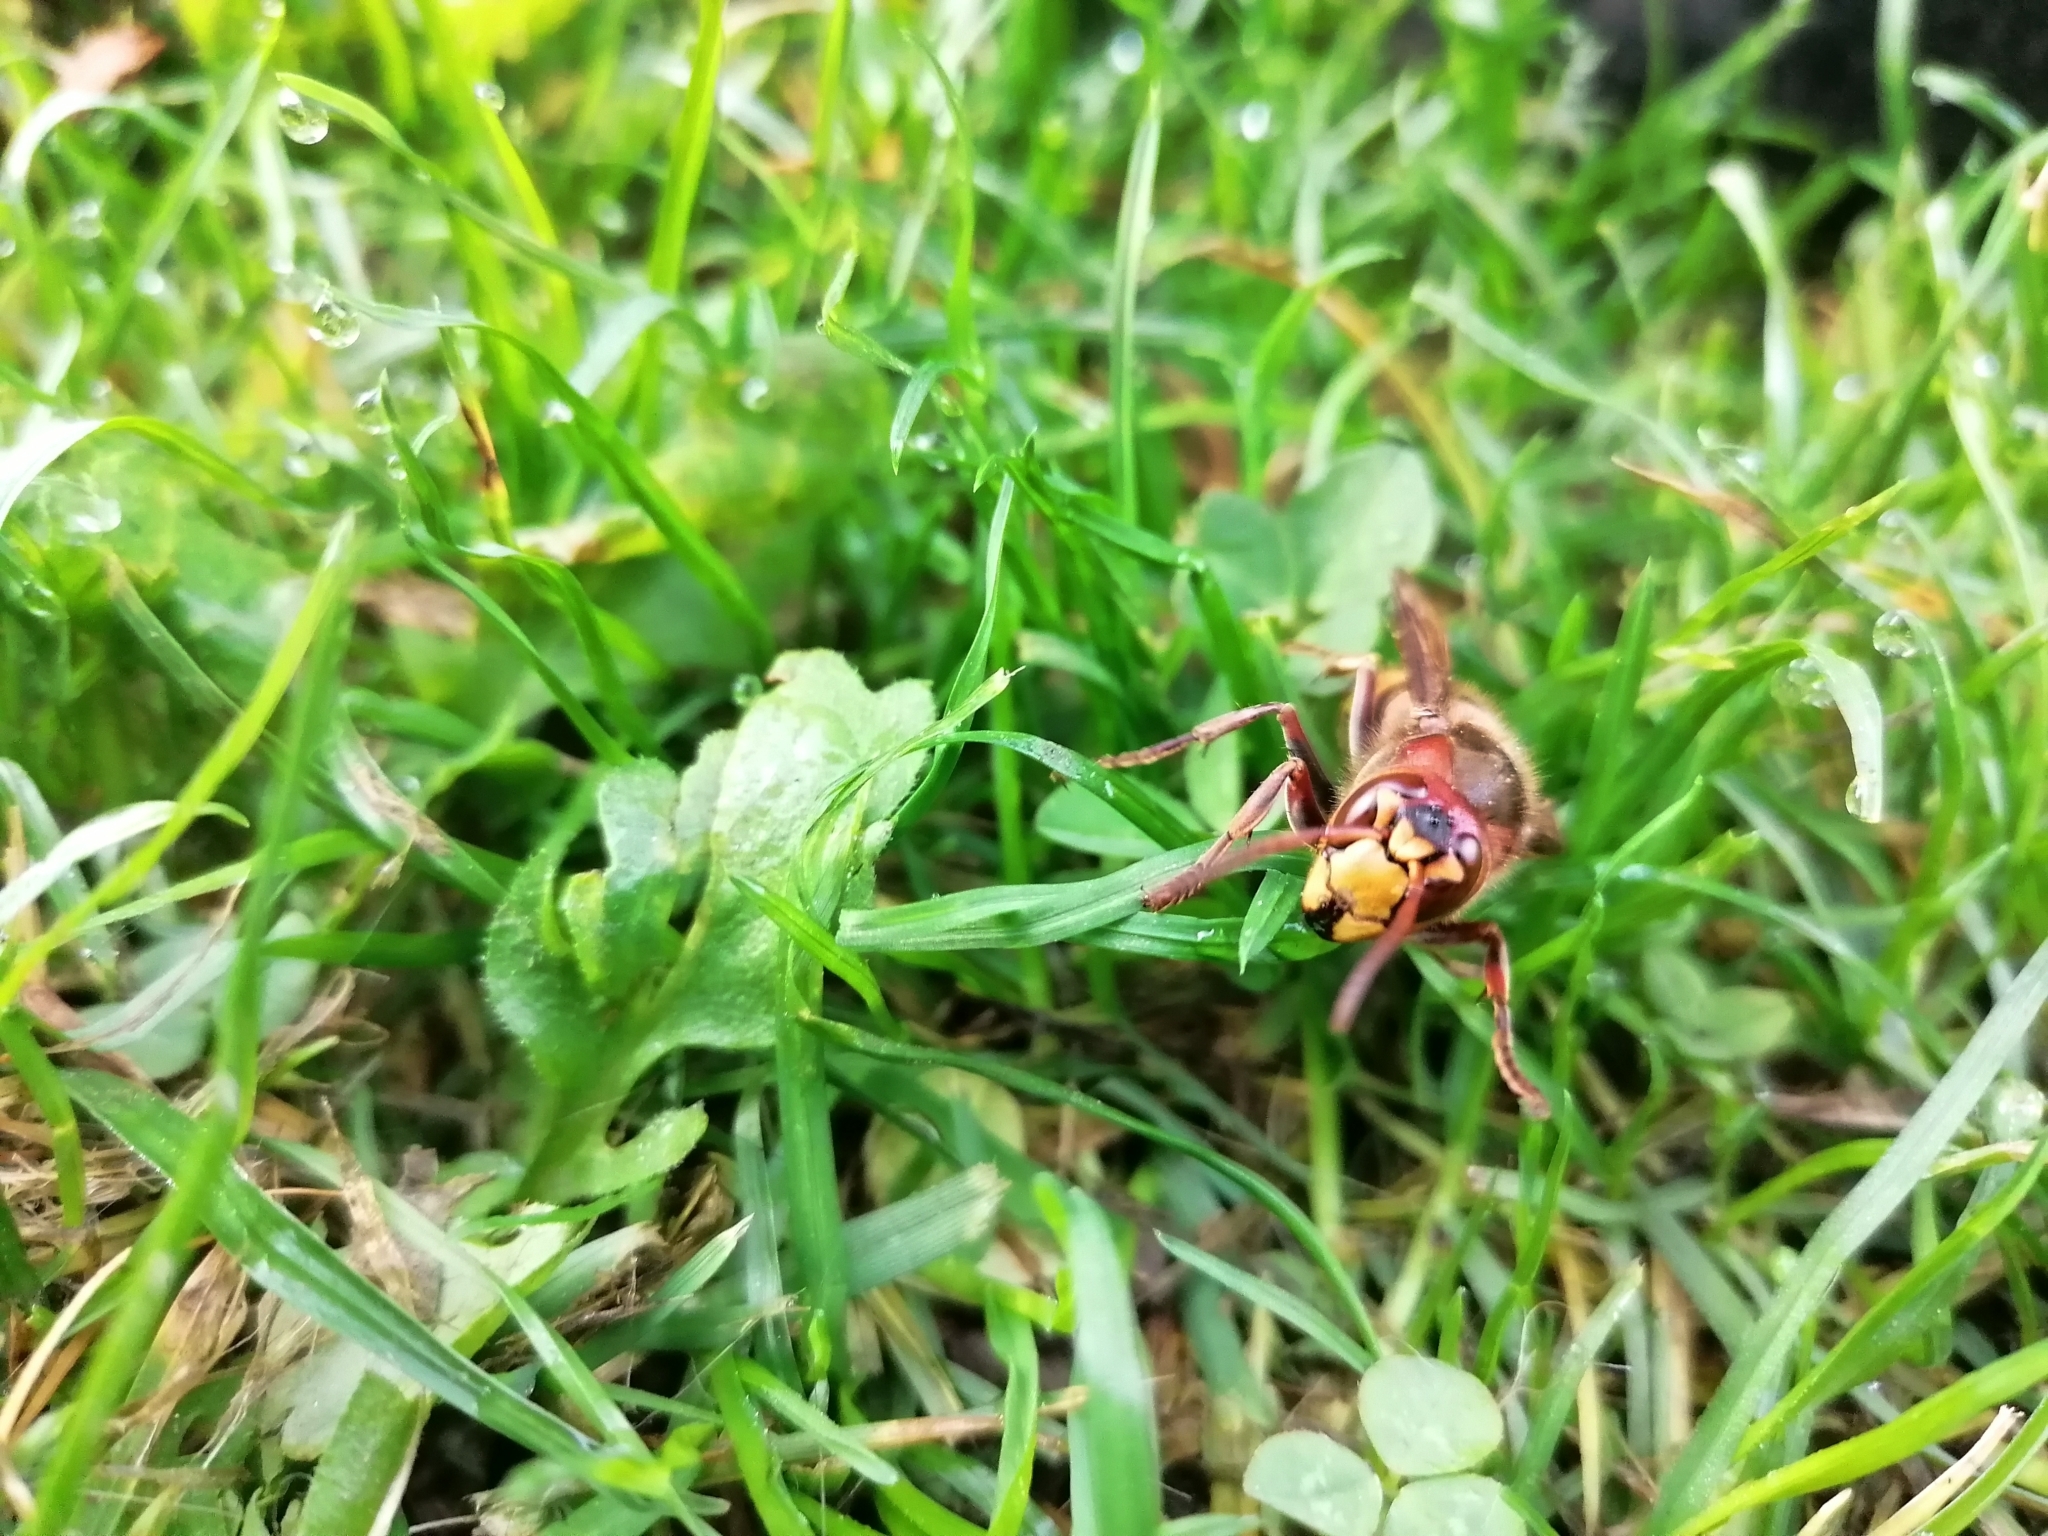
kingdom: Animalia
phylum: Arthropoda
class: Insecta
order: Hymenoptera
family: Vespidae
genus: Vespa
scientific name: Vespa crabro
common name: Hornet
